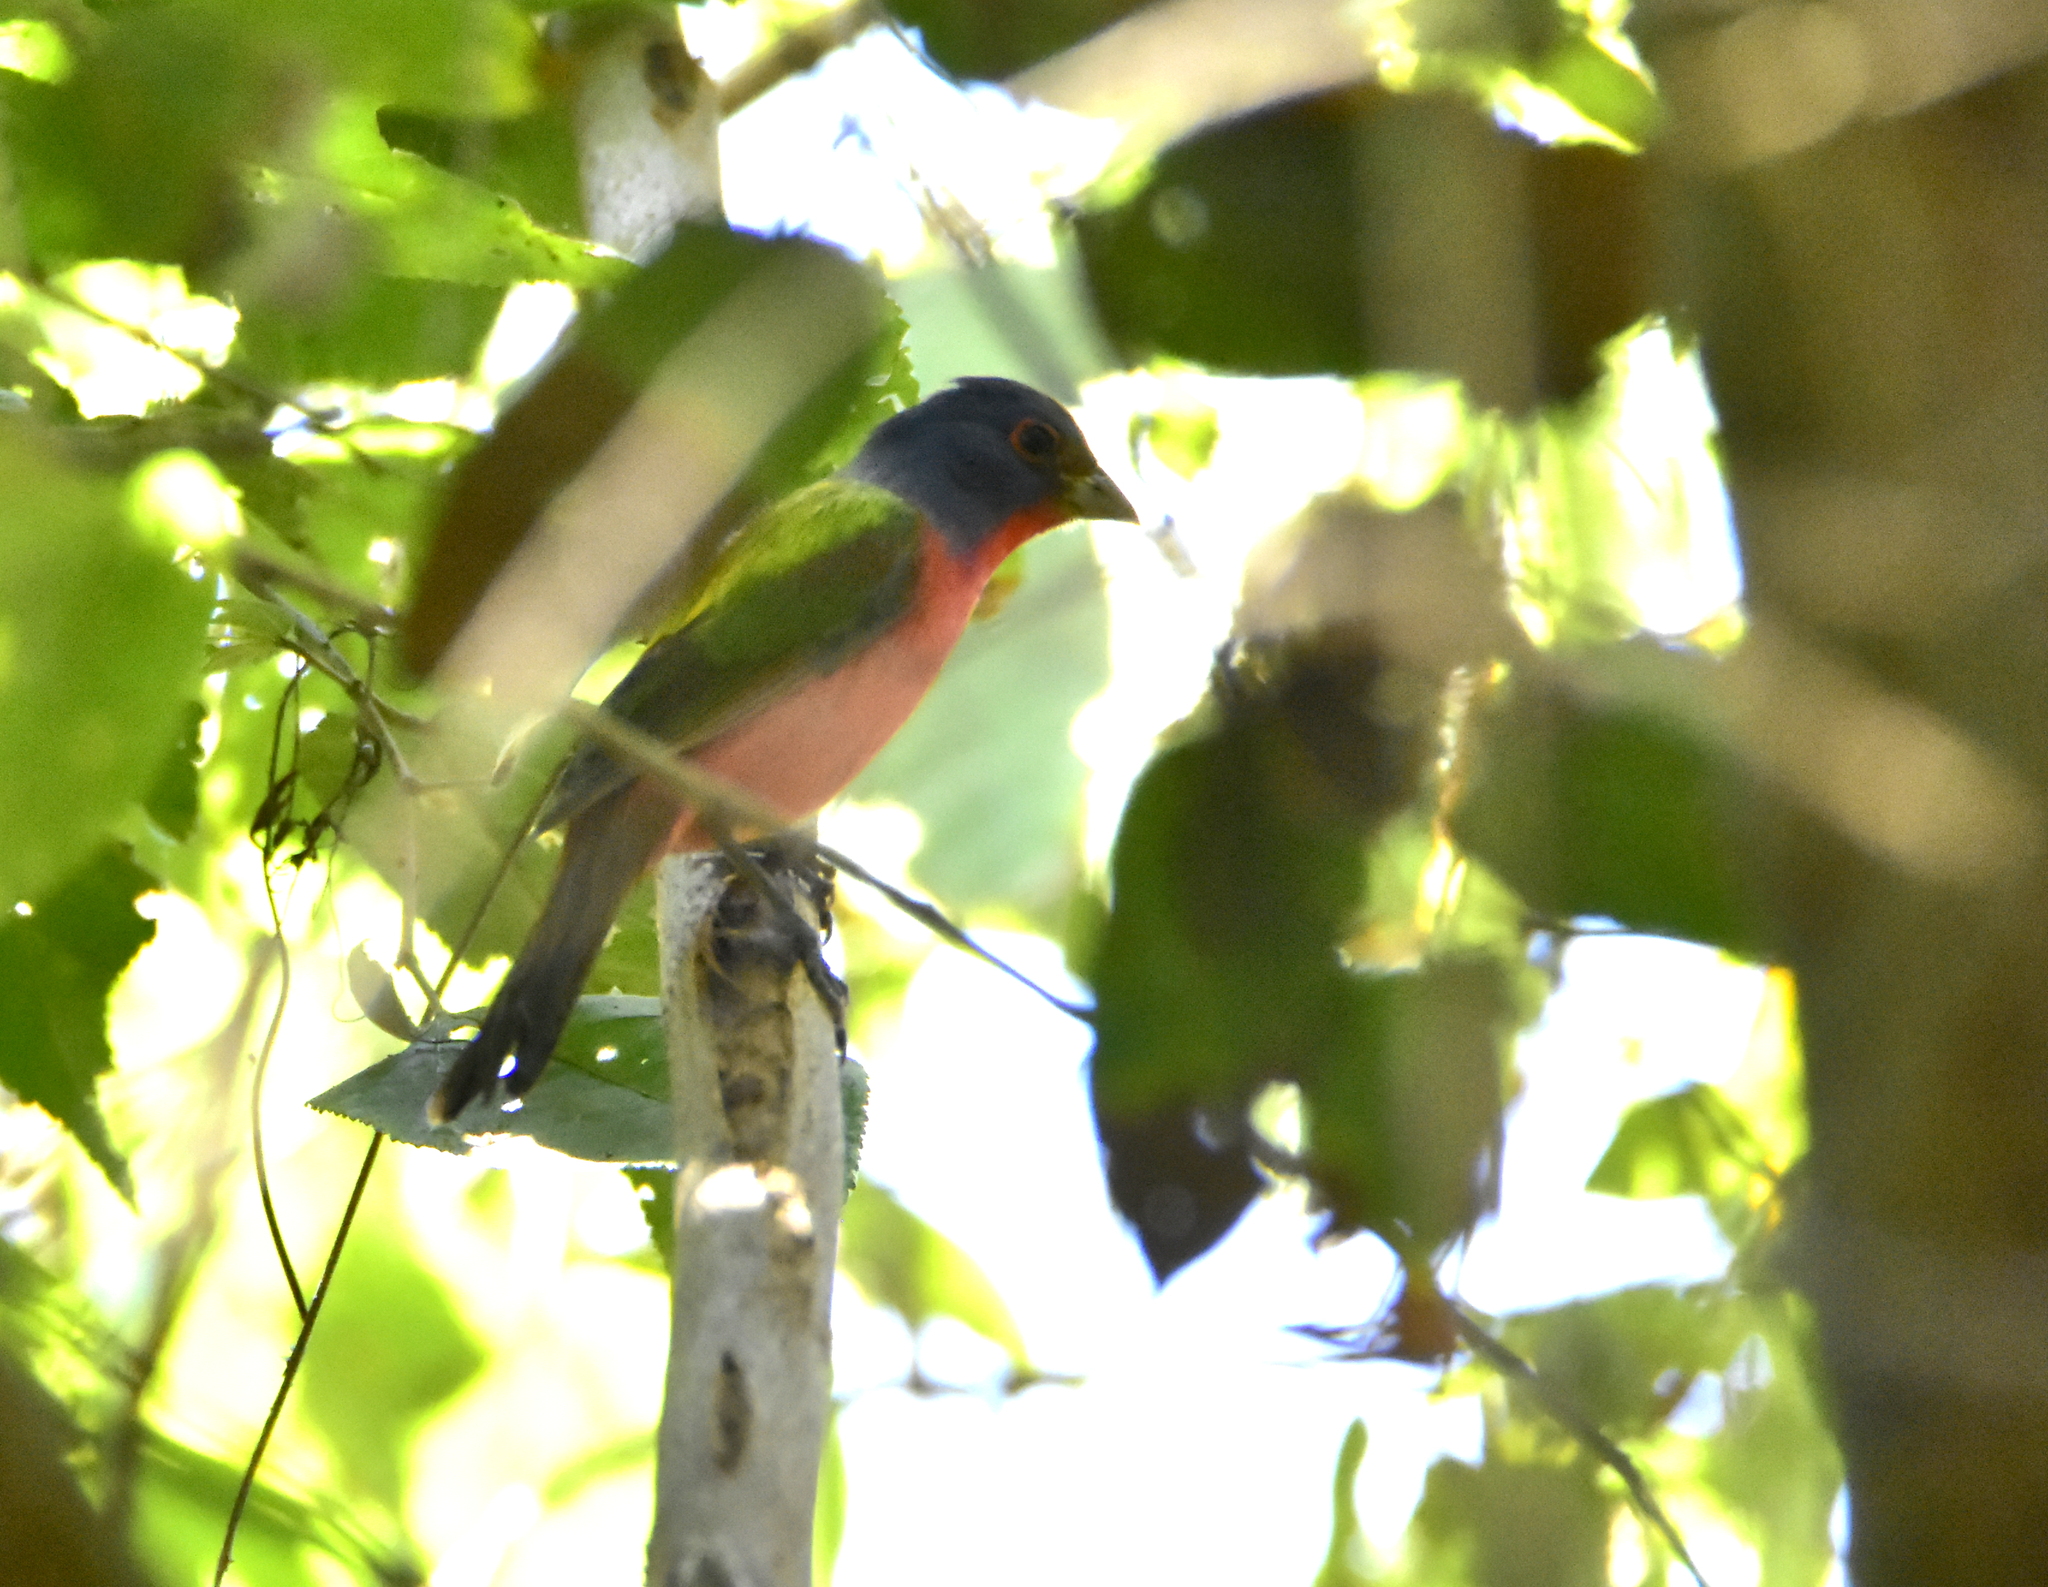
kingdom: Animalia
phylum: Chordata
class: Aves
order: Passeriformes
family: Cardinalidae
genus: Passerina
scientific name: Passerina ciris
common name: Painted bunting
